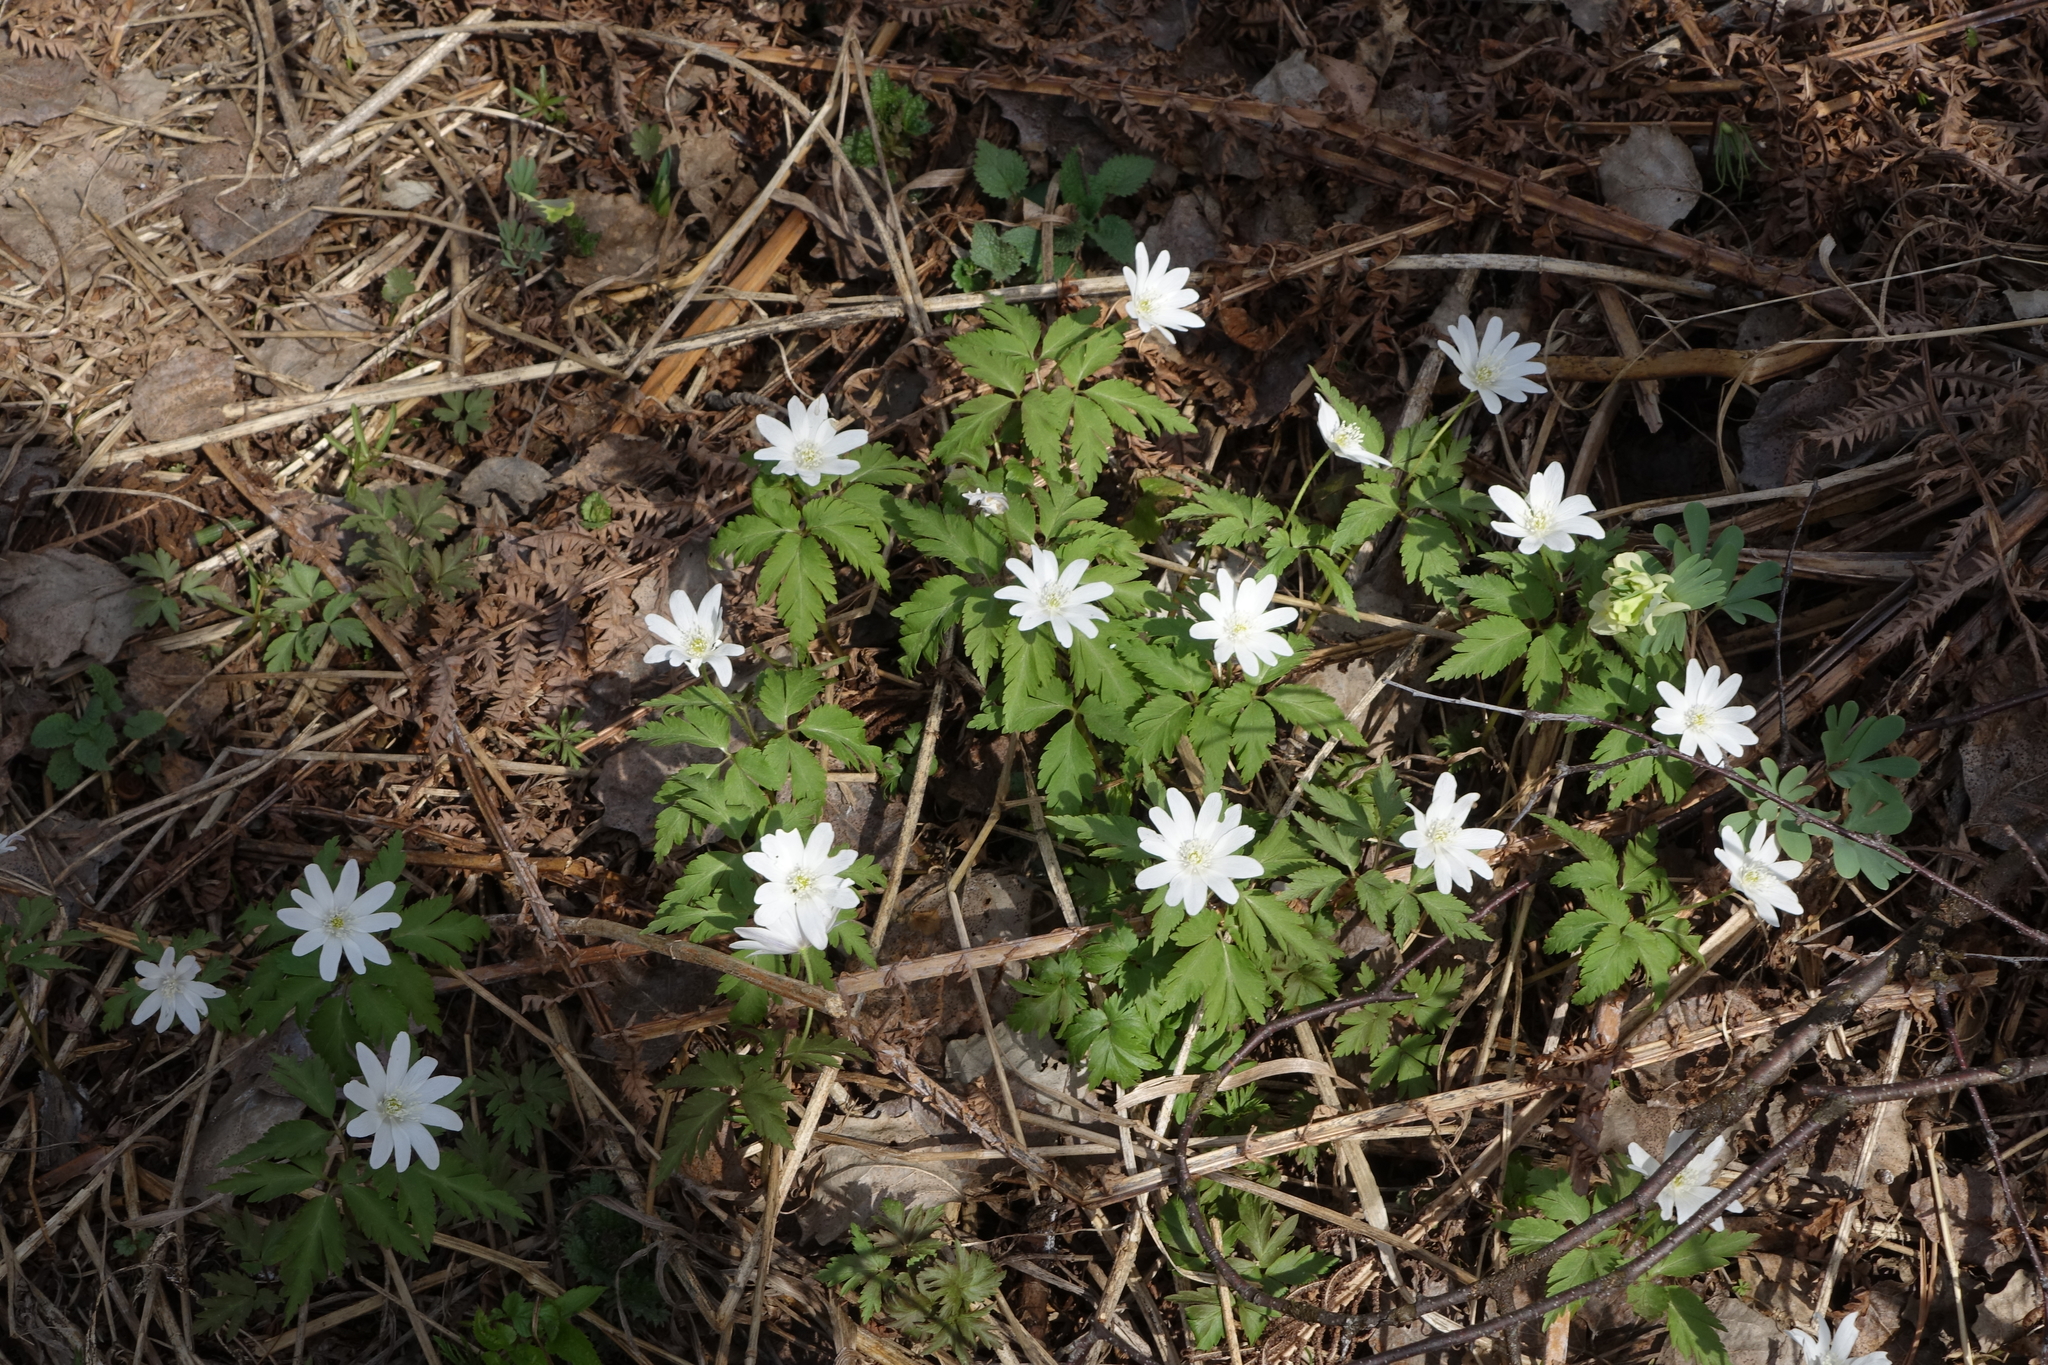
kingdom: Plantae
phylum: Tracheophyta
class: Magnoliopsida
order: Ranunculales
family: Ranunculaceae
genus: Anemone
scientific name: Anemone altaica
